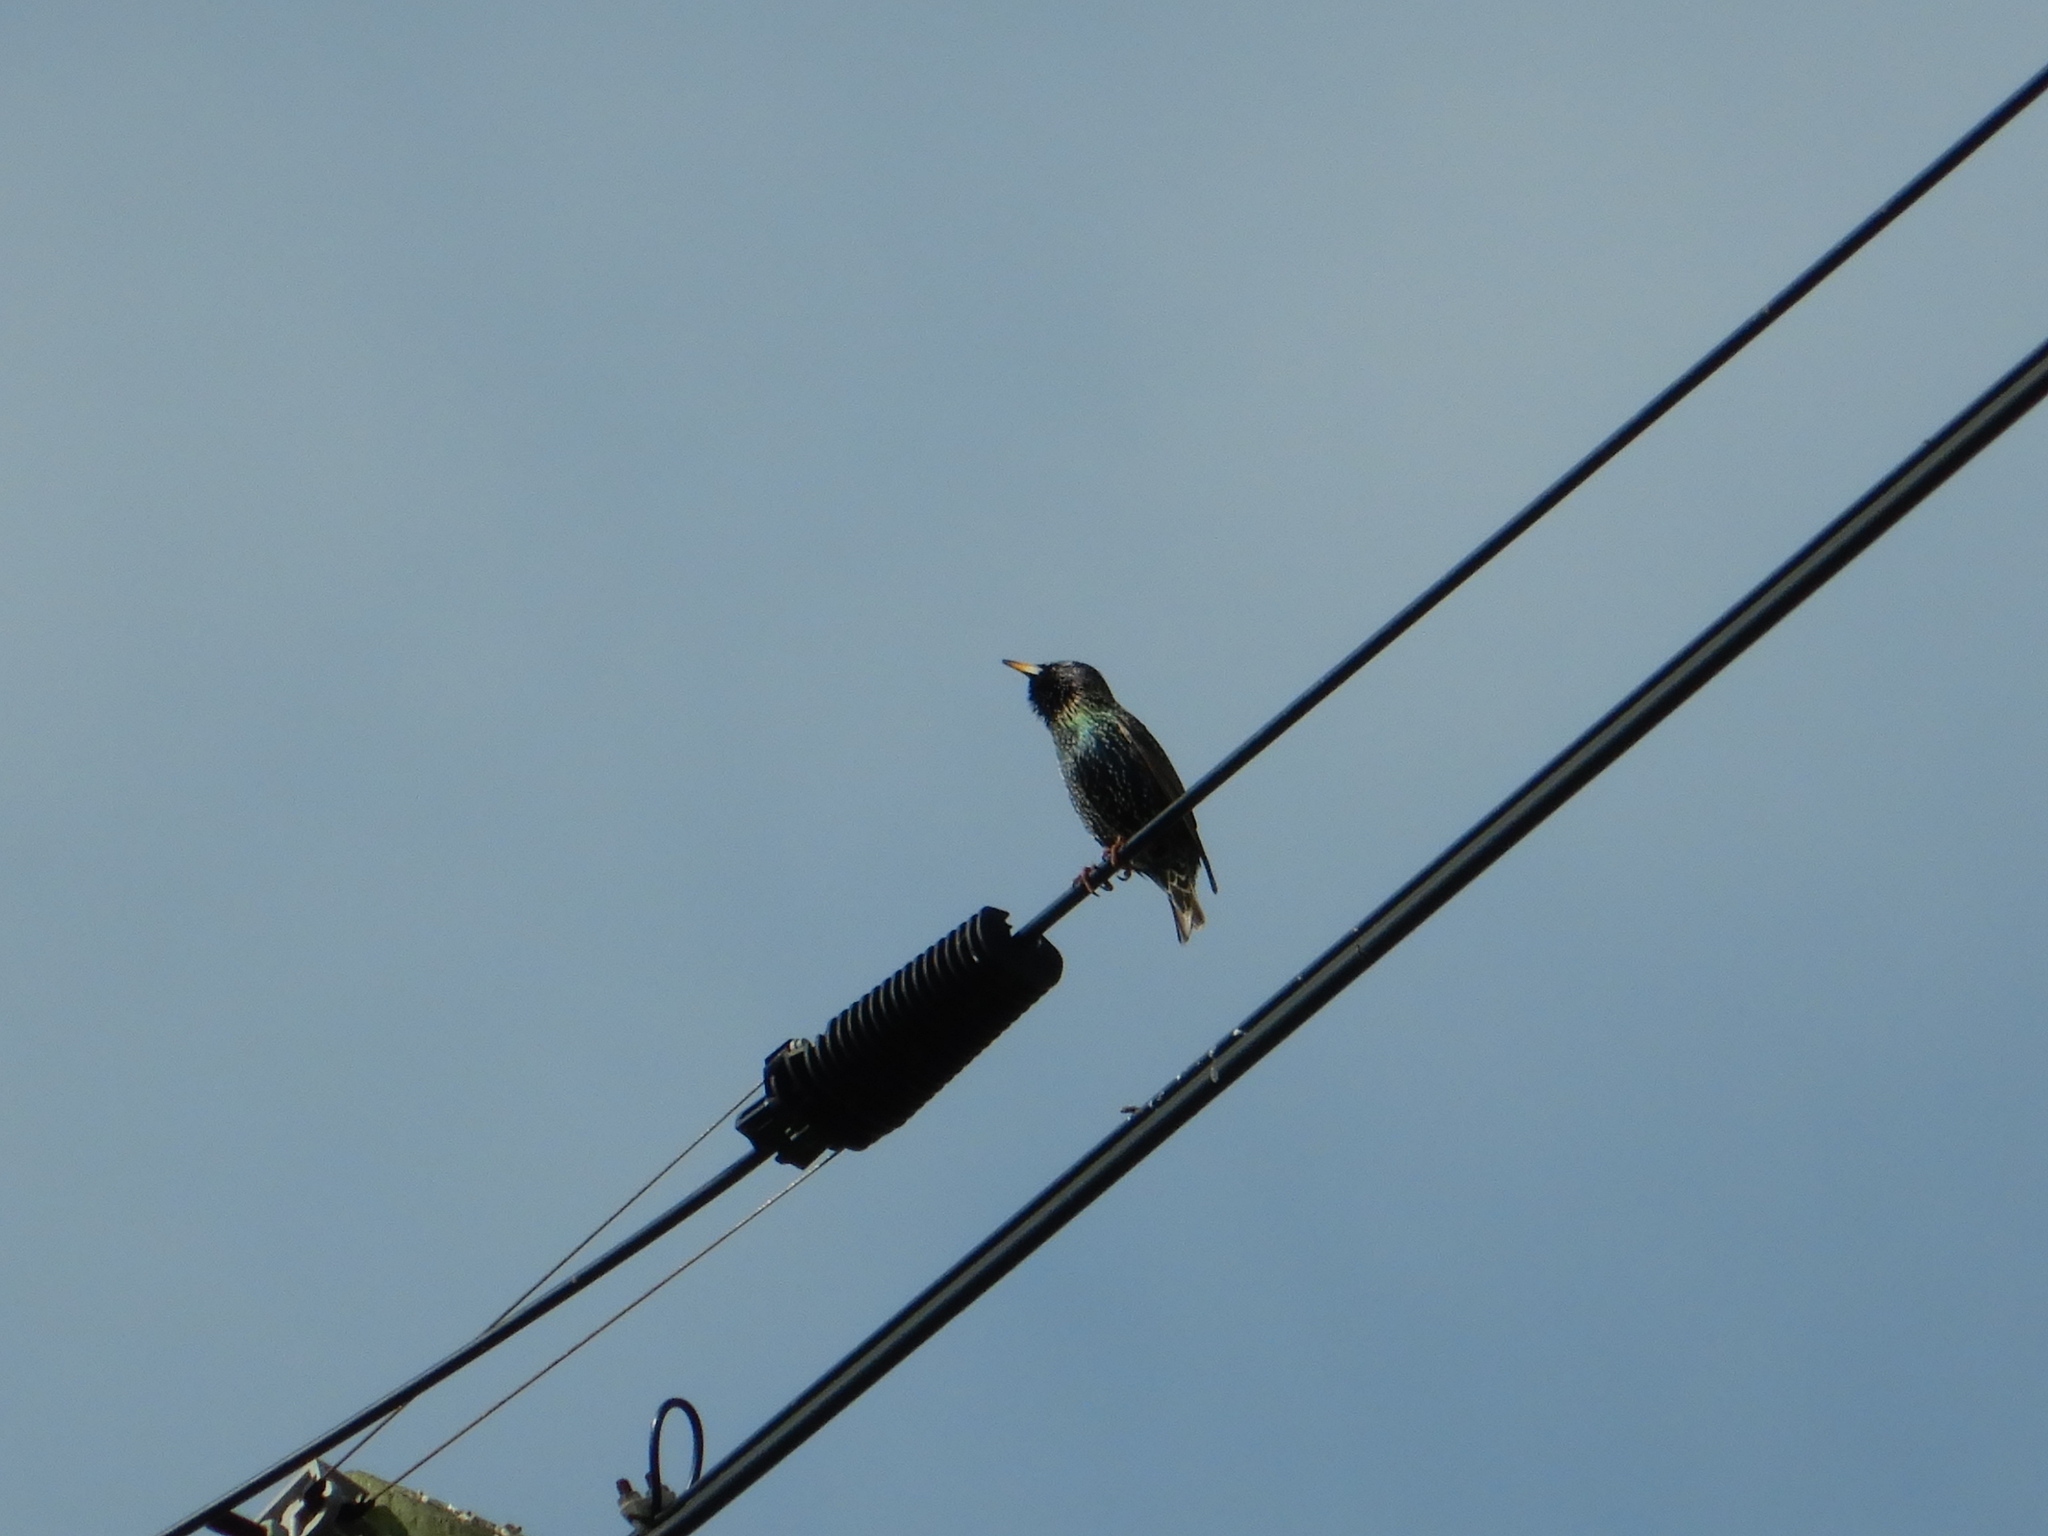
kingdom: Animalia
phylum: Chordata
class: Aves
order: Passeriformes
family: Sturnidae
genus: Sturnus
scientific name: Sturnus vulgaris
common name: Common starling
